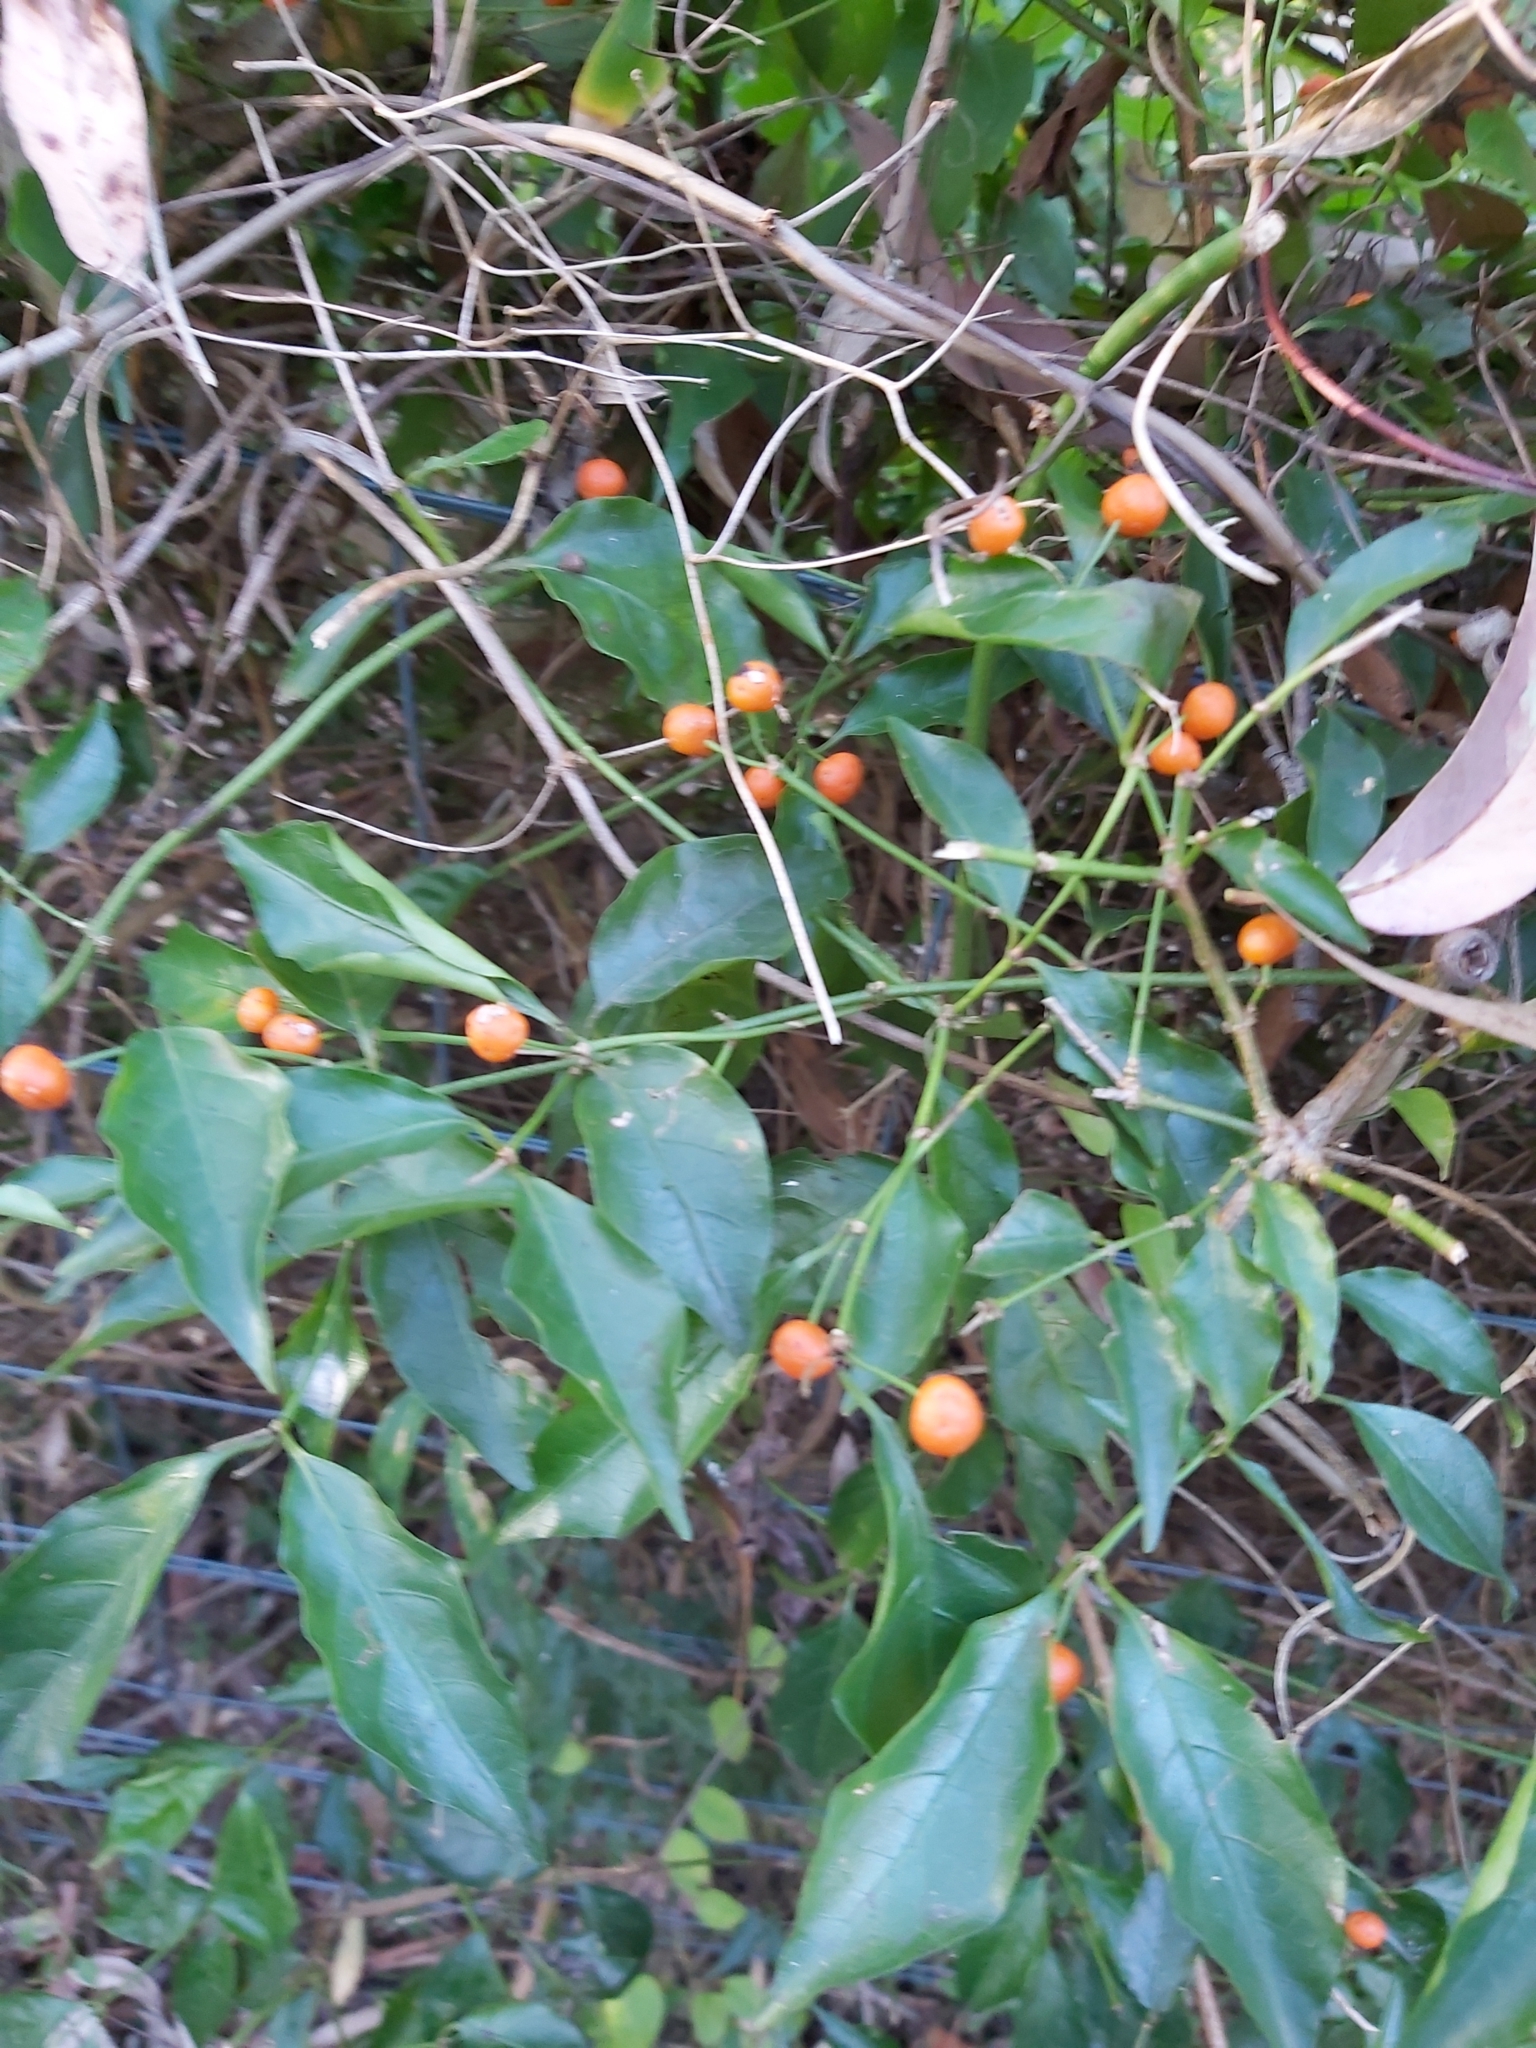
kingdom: Plantae
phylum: Tracheophyta
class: Magnoliopsida
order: Gentianales
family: Rubiaceae
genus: Gynochthodes
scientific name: Gynochthodes jasminoides
